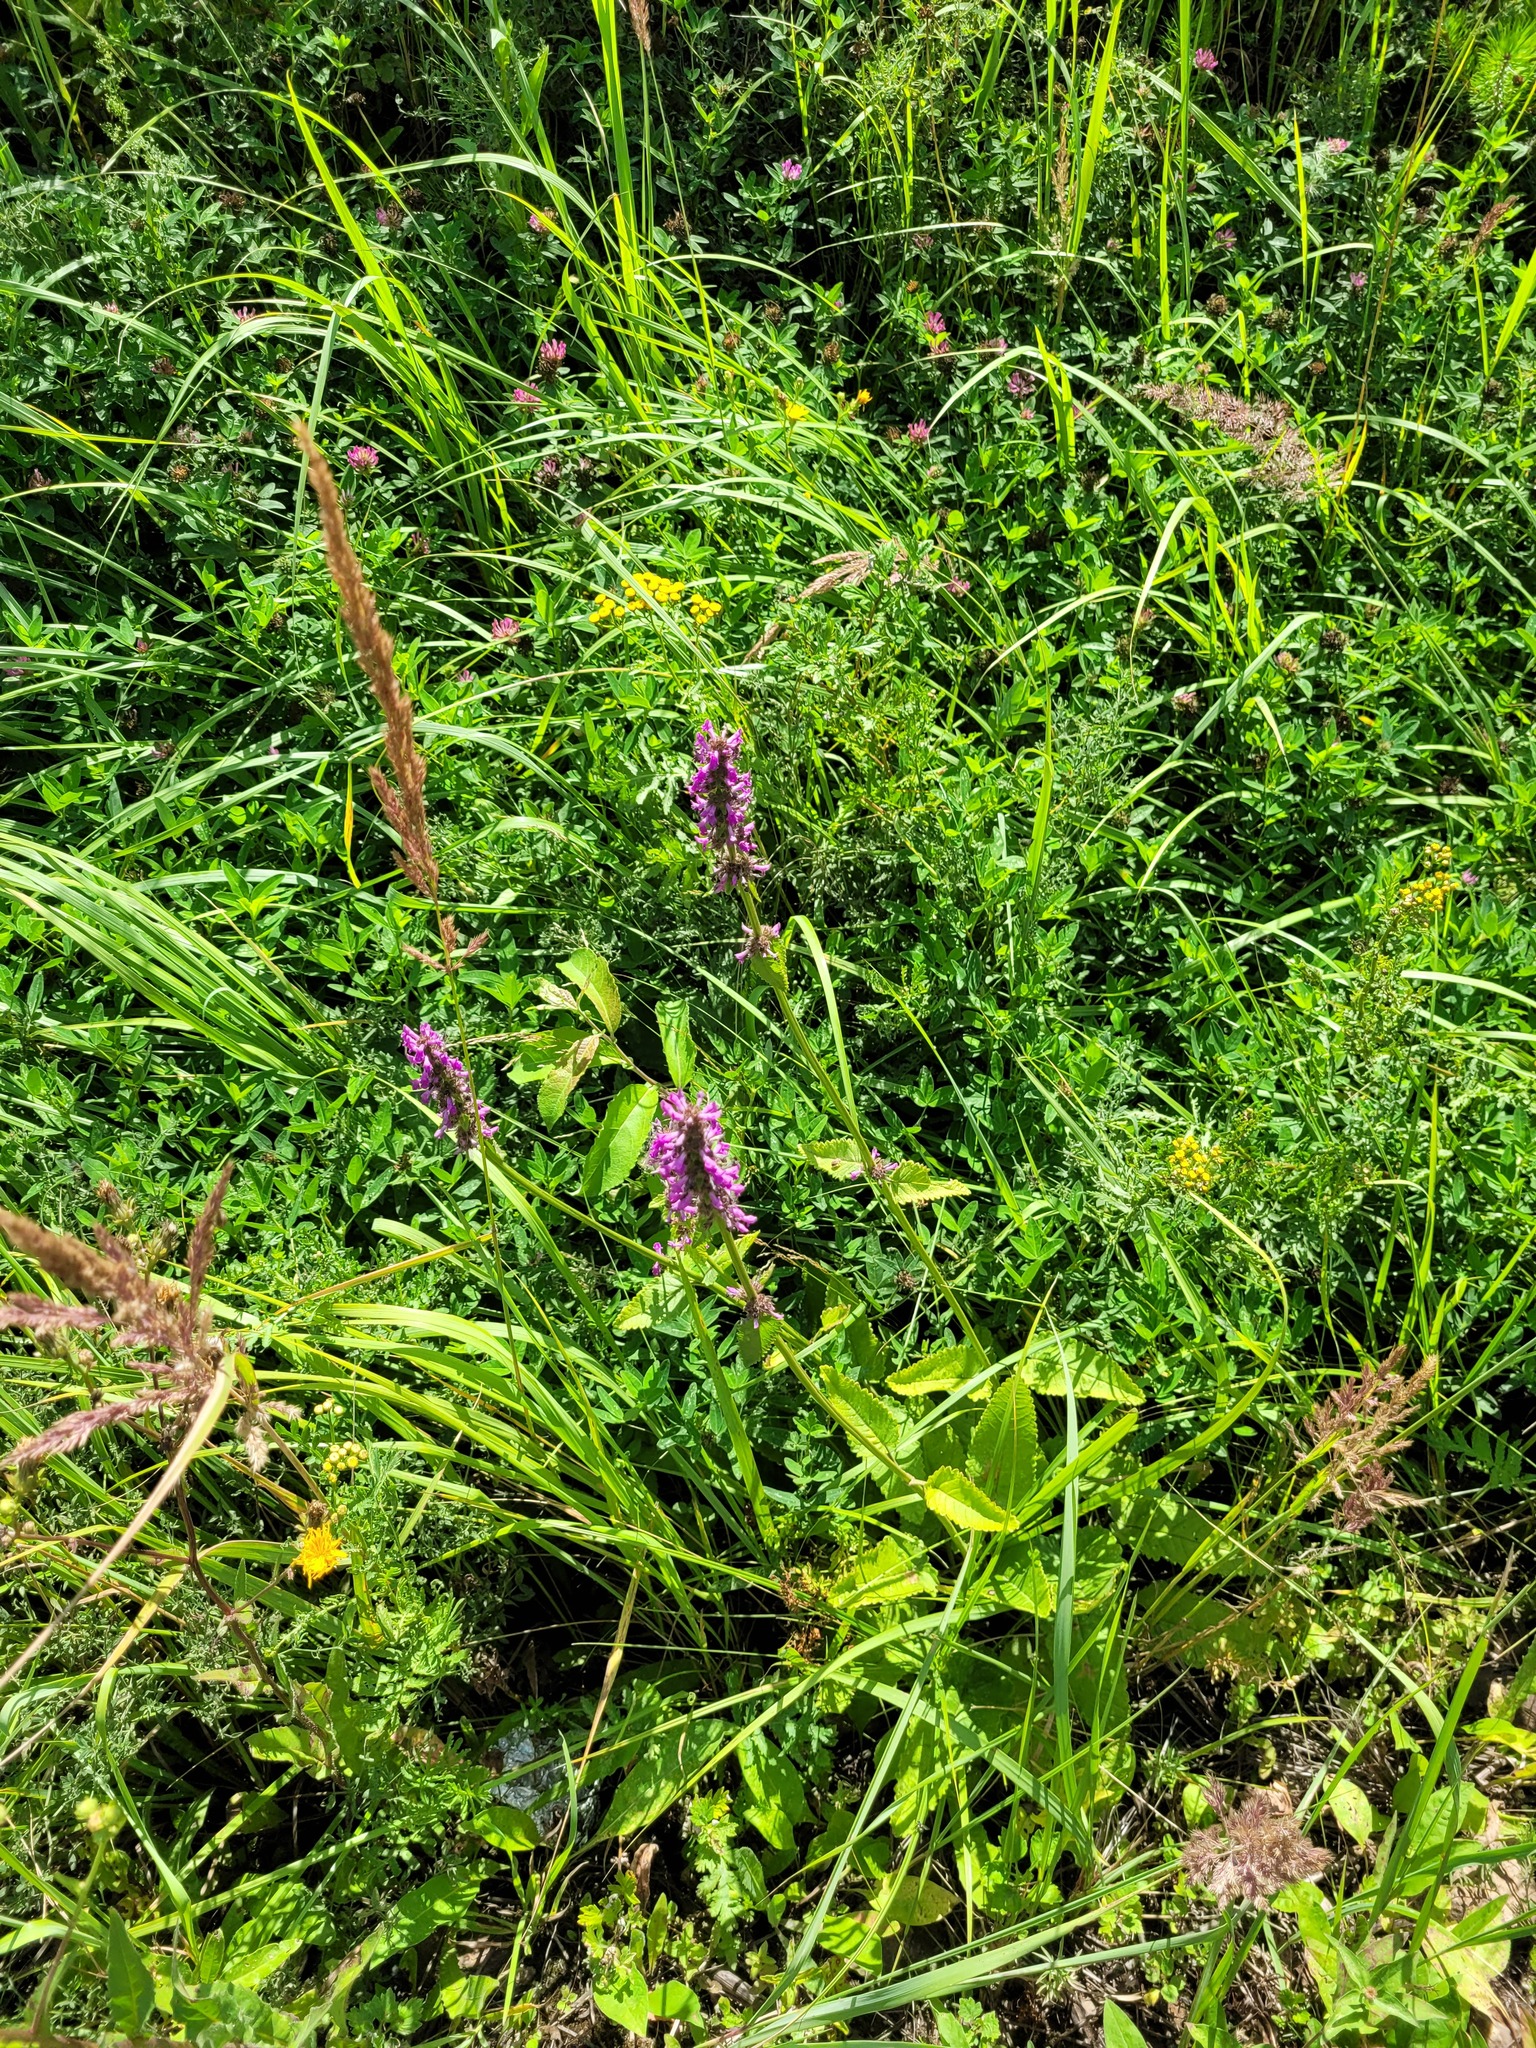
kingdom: Plantae
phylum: Tracheophyta
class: Magnoliopsida
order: Lamiales
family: Lamiaceae
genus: Betonica
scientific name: Betonica officinalis
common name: Bishop's-wort
